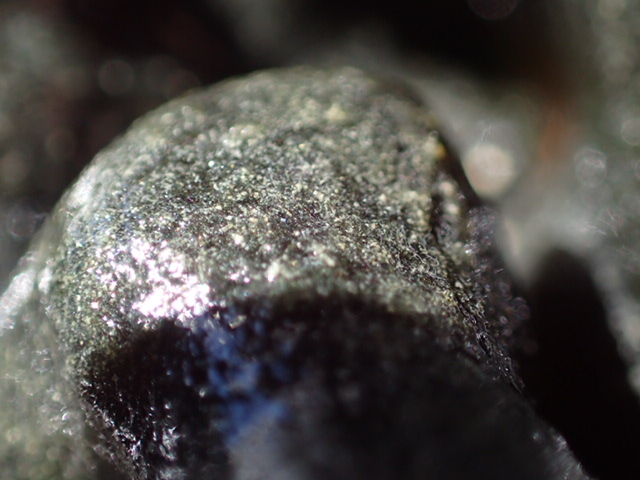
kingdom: Plantae
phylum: Chlorophyta
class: Ulvophyceae
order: Bryopsidales
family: Codiaceae
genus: Codium
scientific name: Codium convolutum
